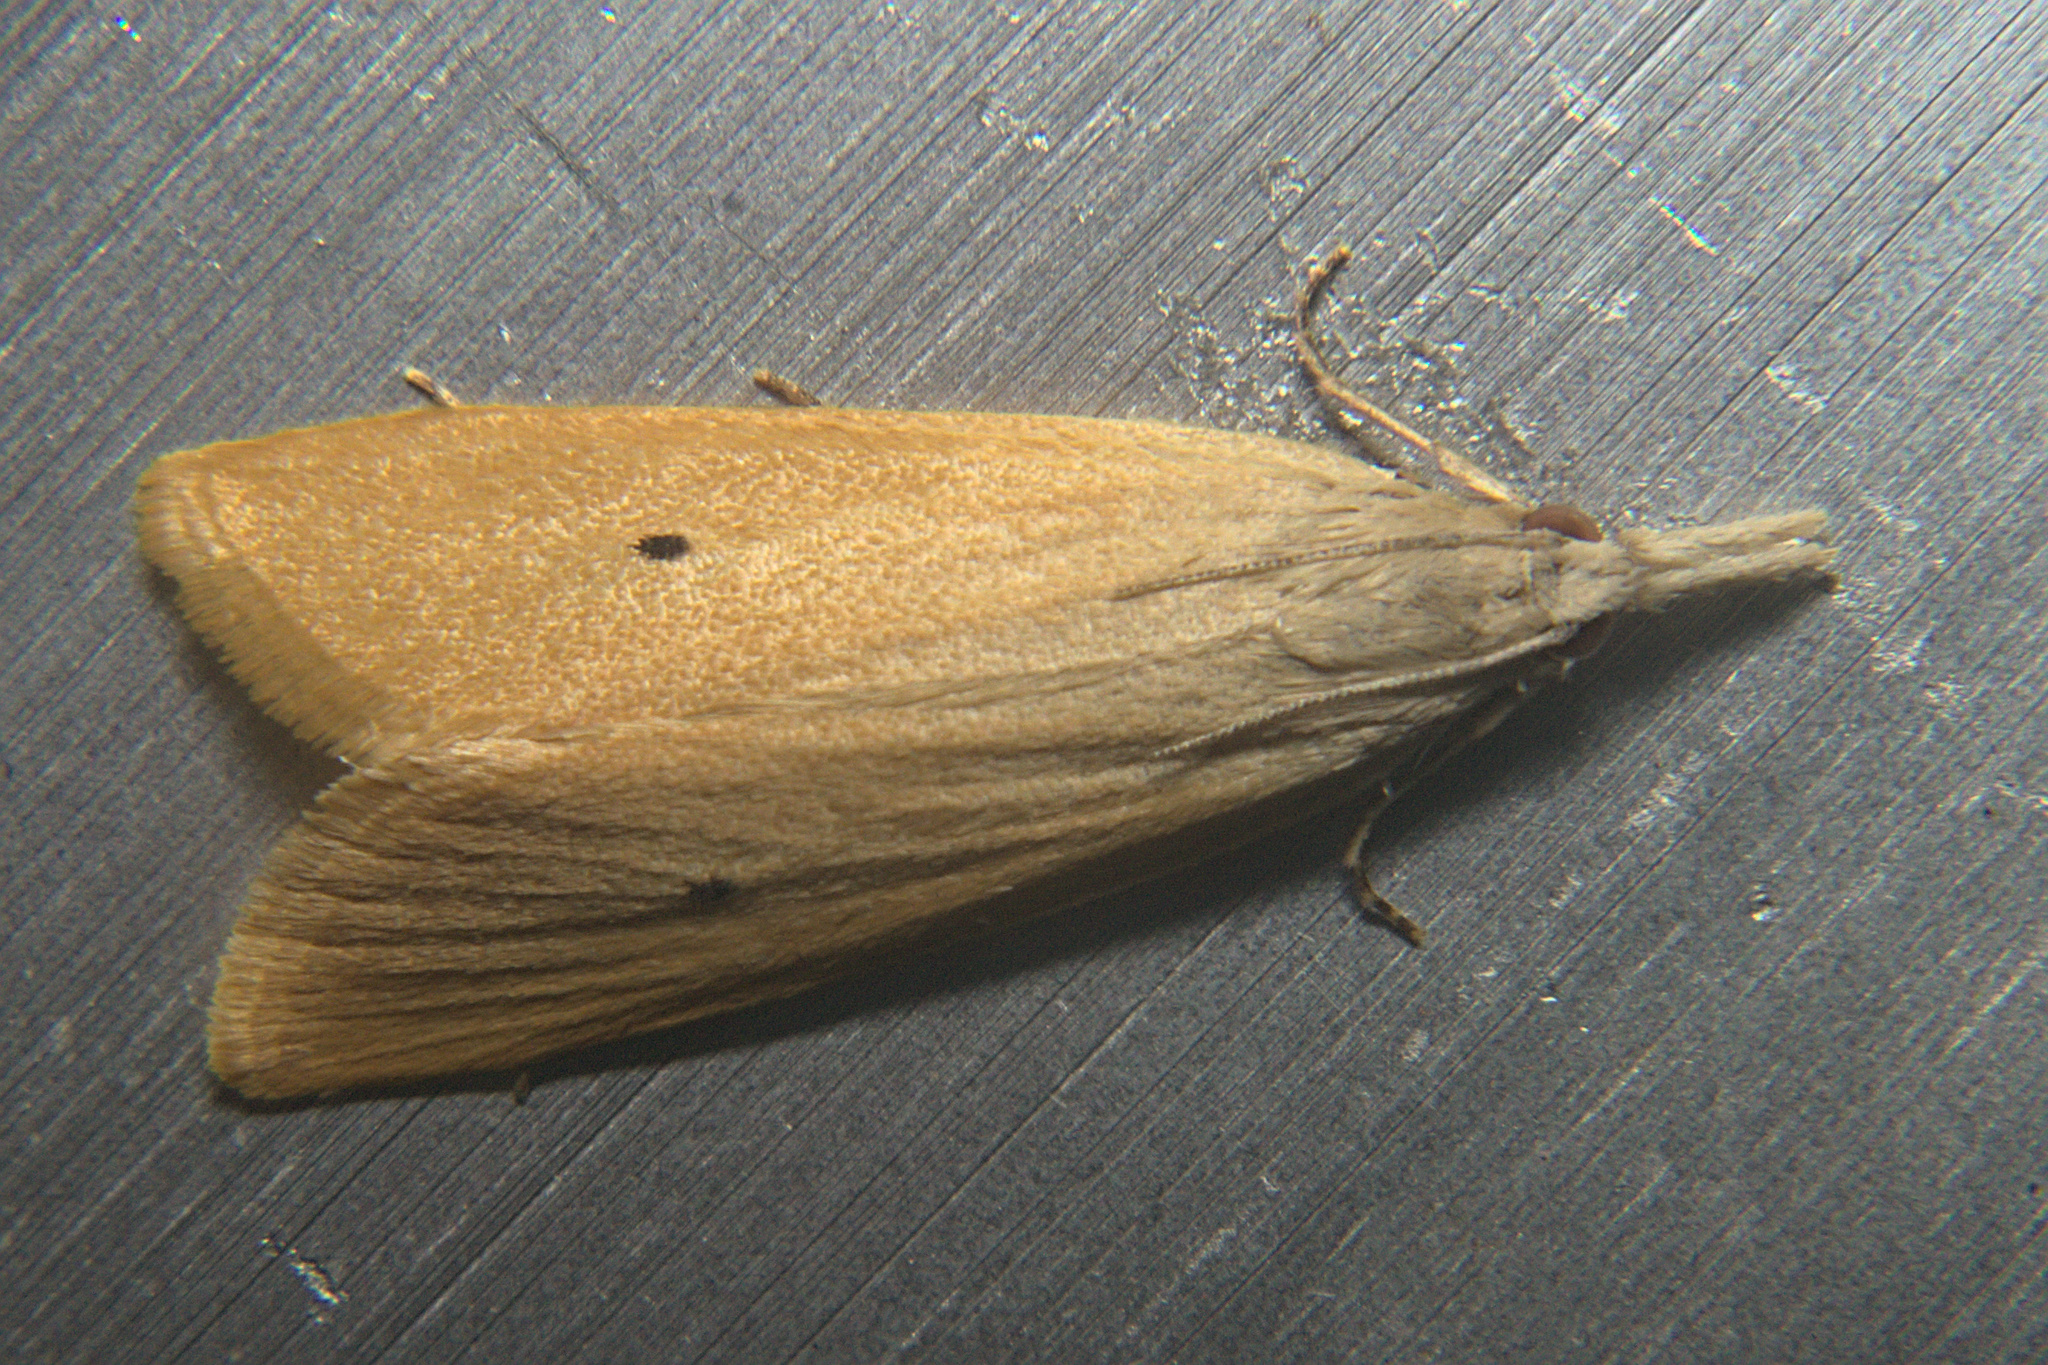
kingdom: Animalia
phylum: Arthropoda
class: Insecta
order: Lepidoptera
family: Crambidae
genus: Scirpophaga
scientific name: Scirpophaga incertulas
